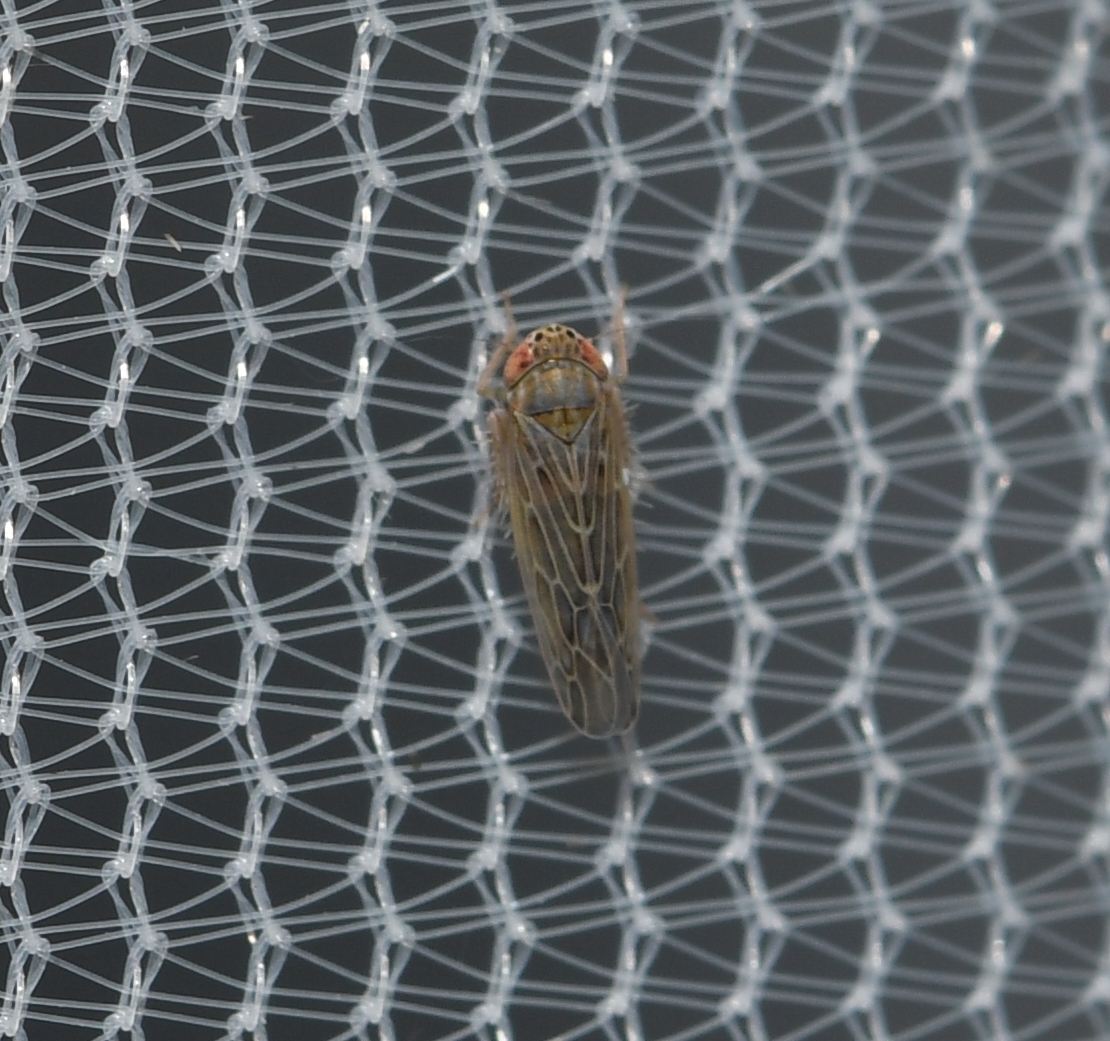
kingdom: Animalia
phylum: Arthropoda
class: Insecta
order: Hemiptera
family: Cicadellidae
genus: Graminella
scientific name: Graminella sonora
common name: Lesser lawn leafhopper
